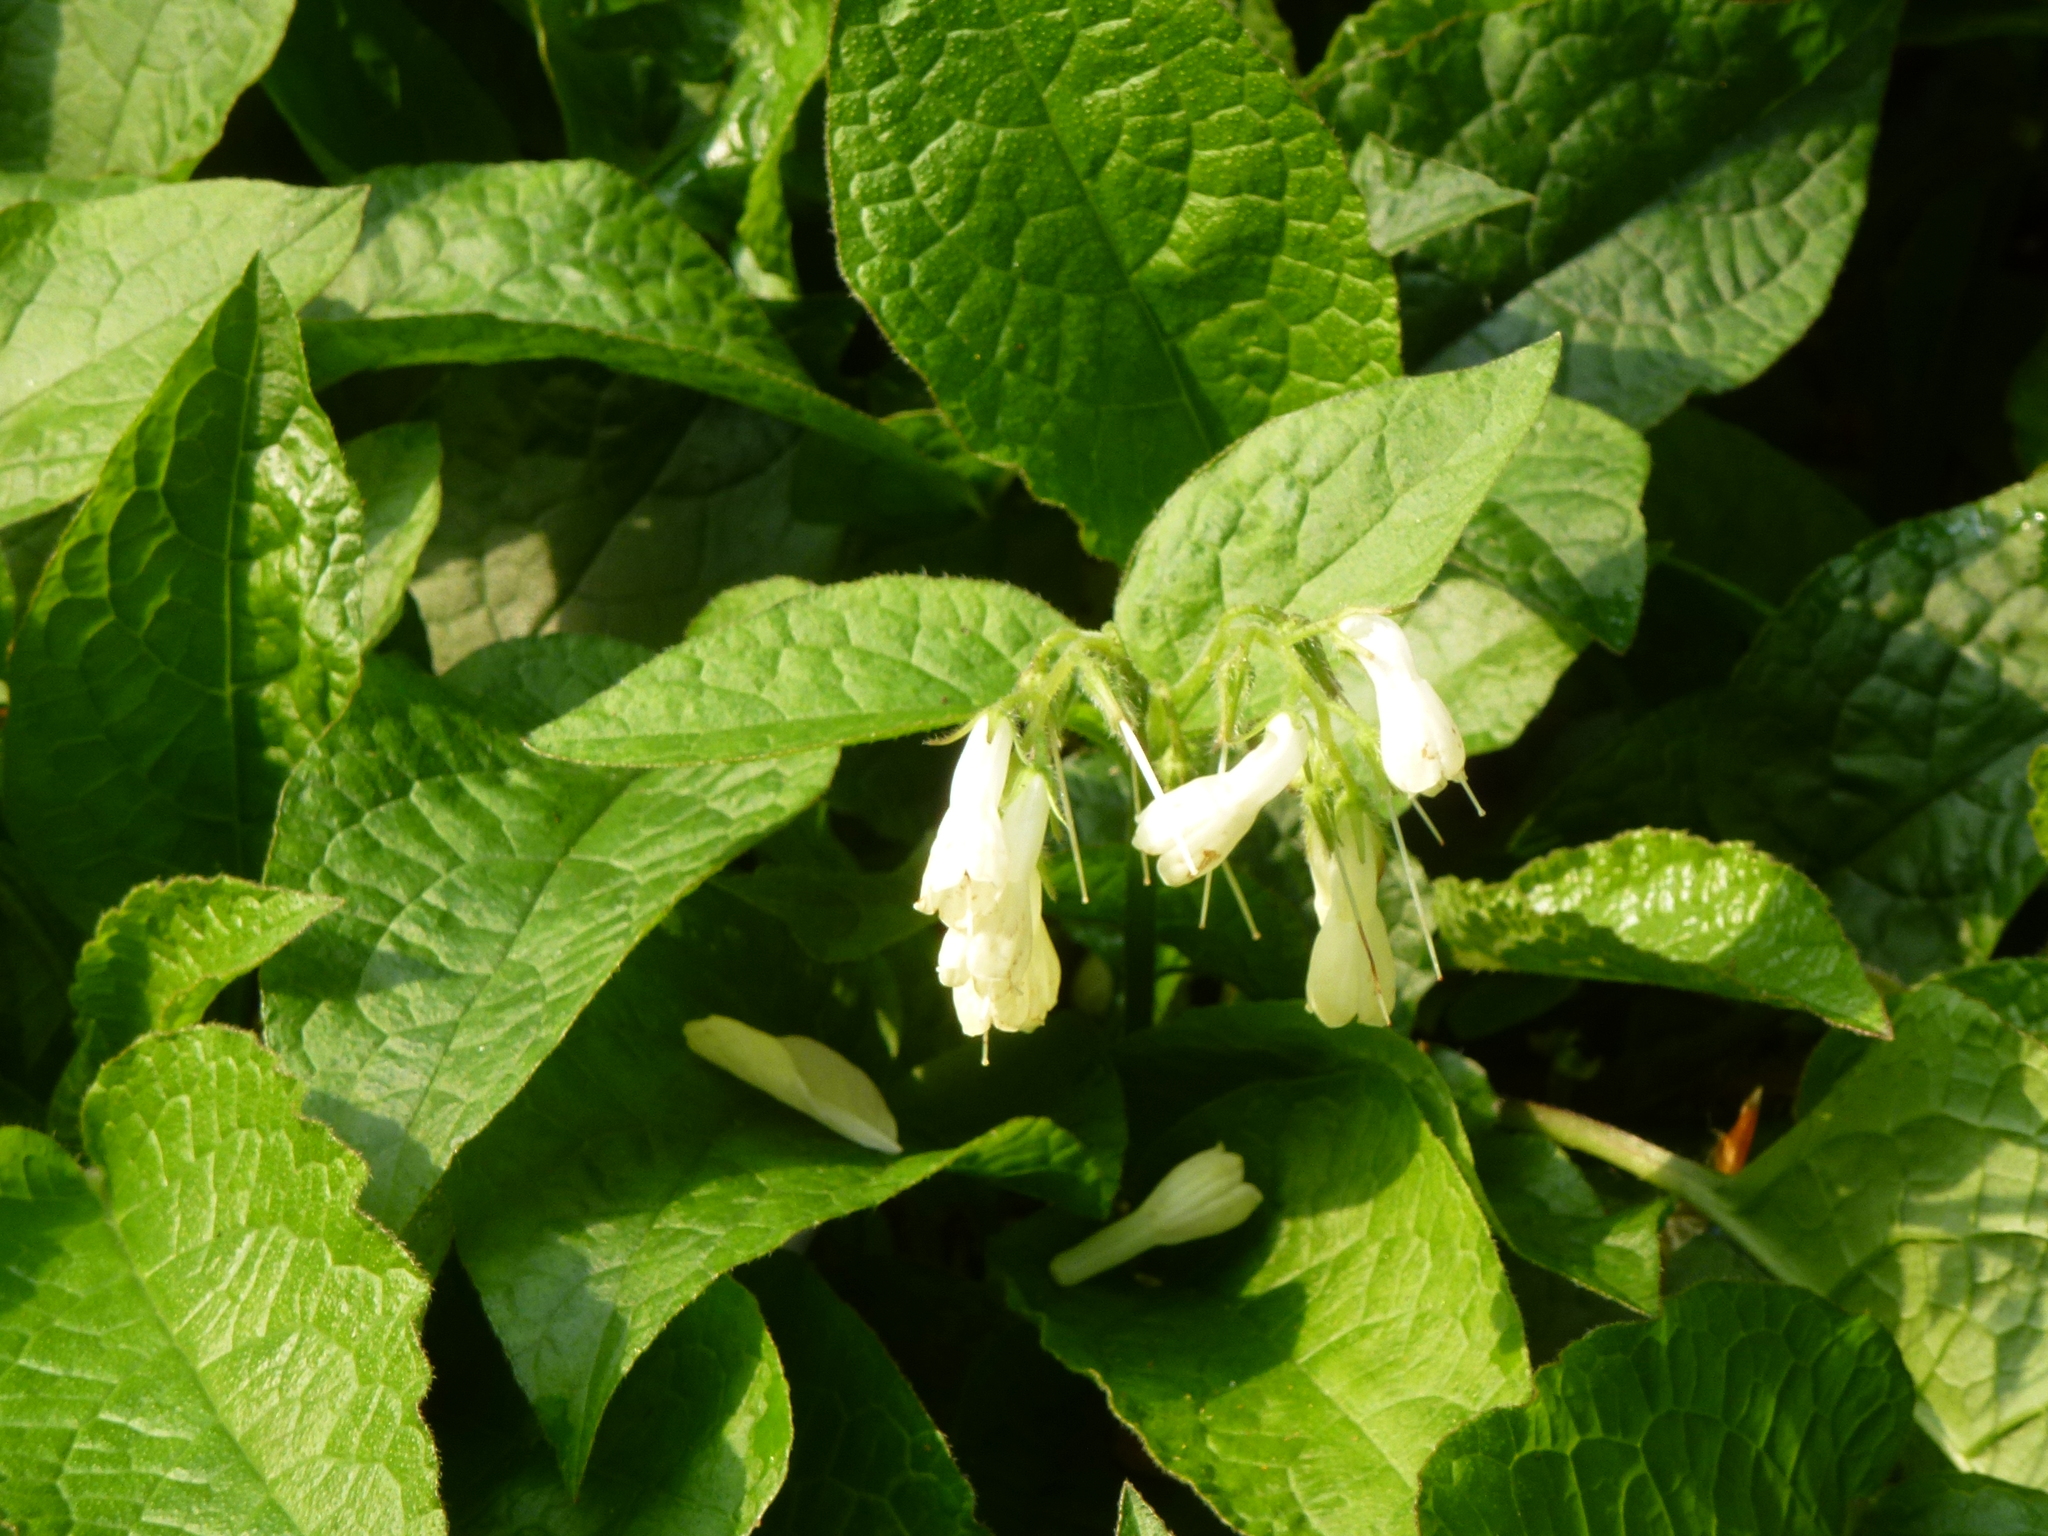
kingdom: Plantae
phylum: Tracheophyta
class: Magnoliopsida
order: Boraginales
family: Boraginaceae
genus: Symphytum
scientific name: Symphytum grandiflorum
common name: Creeping comfrey
